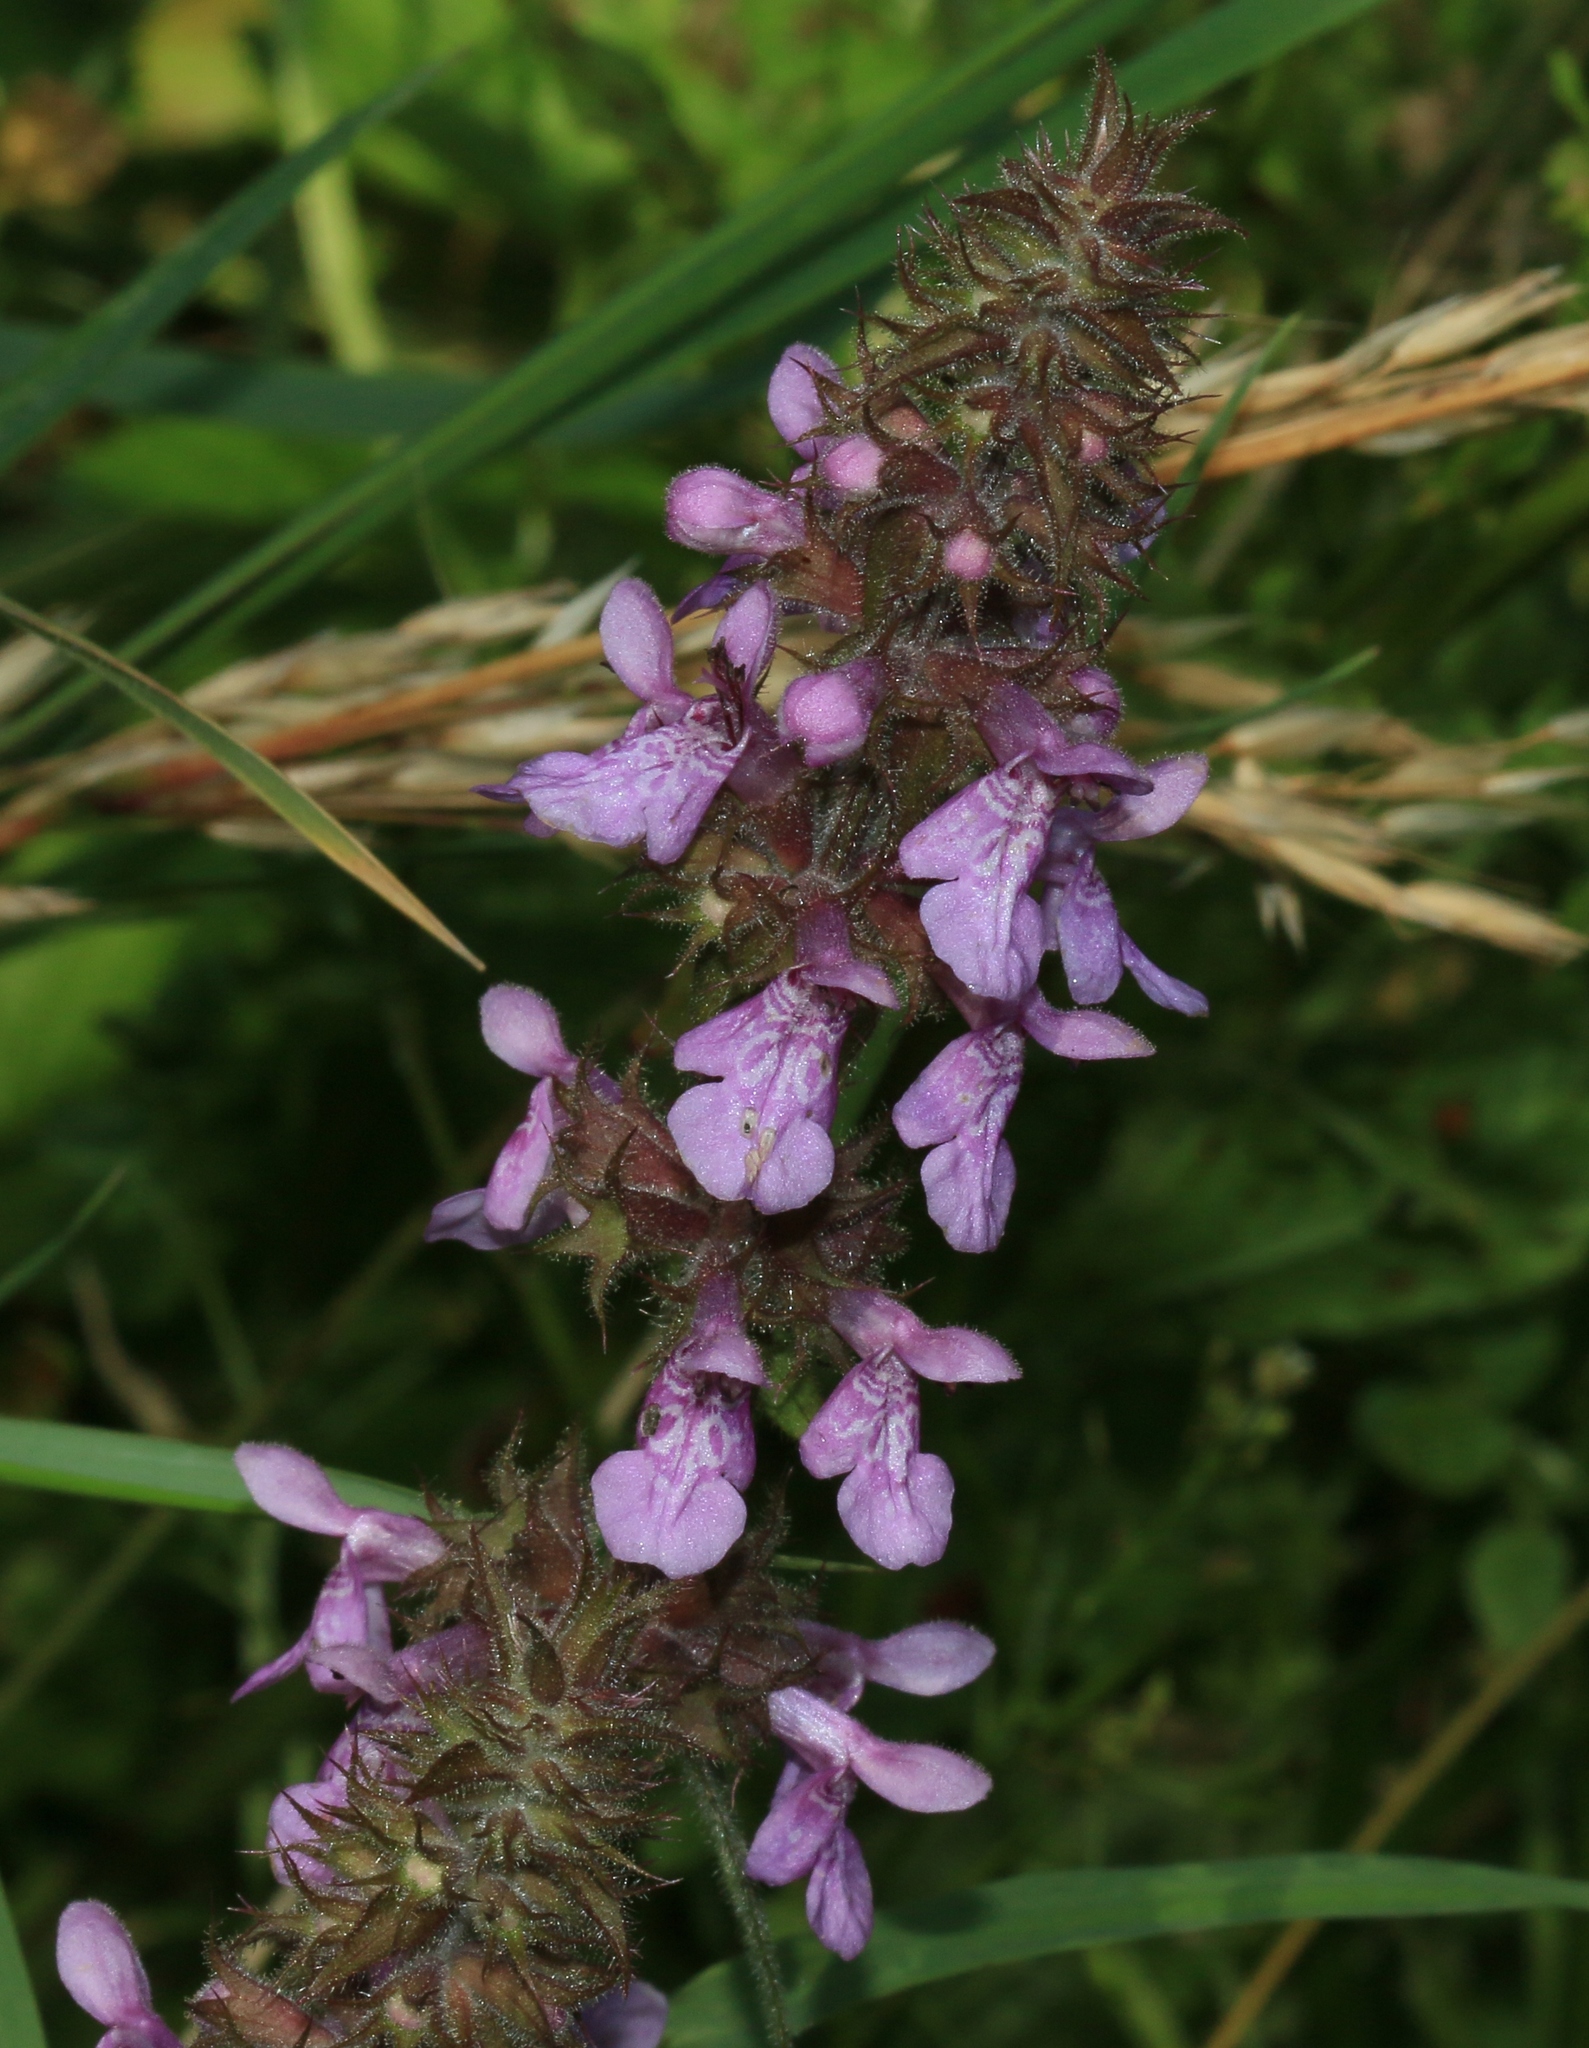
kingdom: Plantae
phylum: Tracheophyta
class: Magnoliopsida
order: Lamiales
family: Lamiaceae
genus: Stachys
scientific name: Stachys palustris
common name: Marsh woundwort
